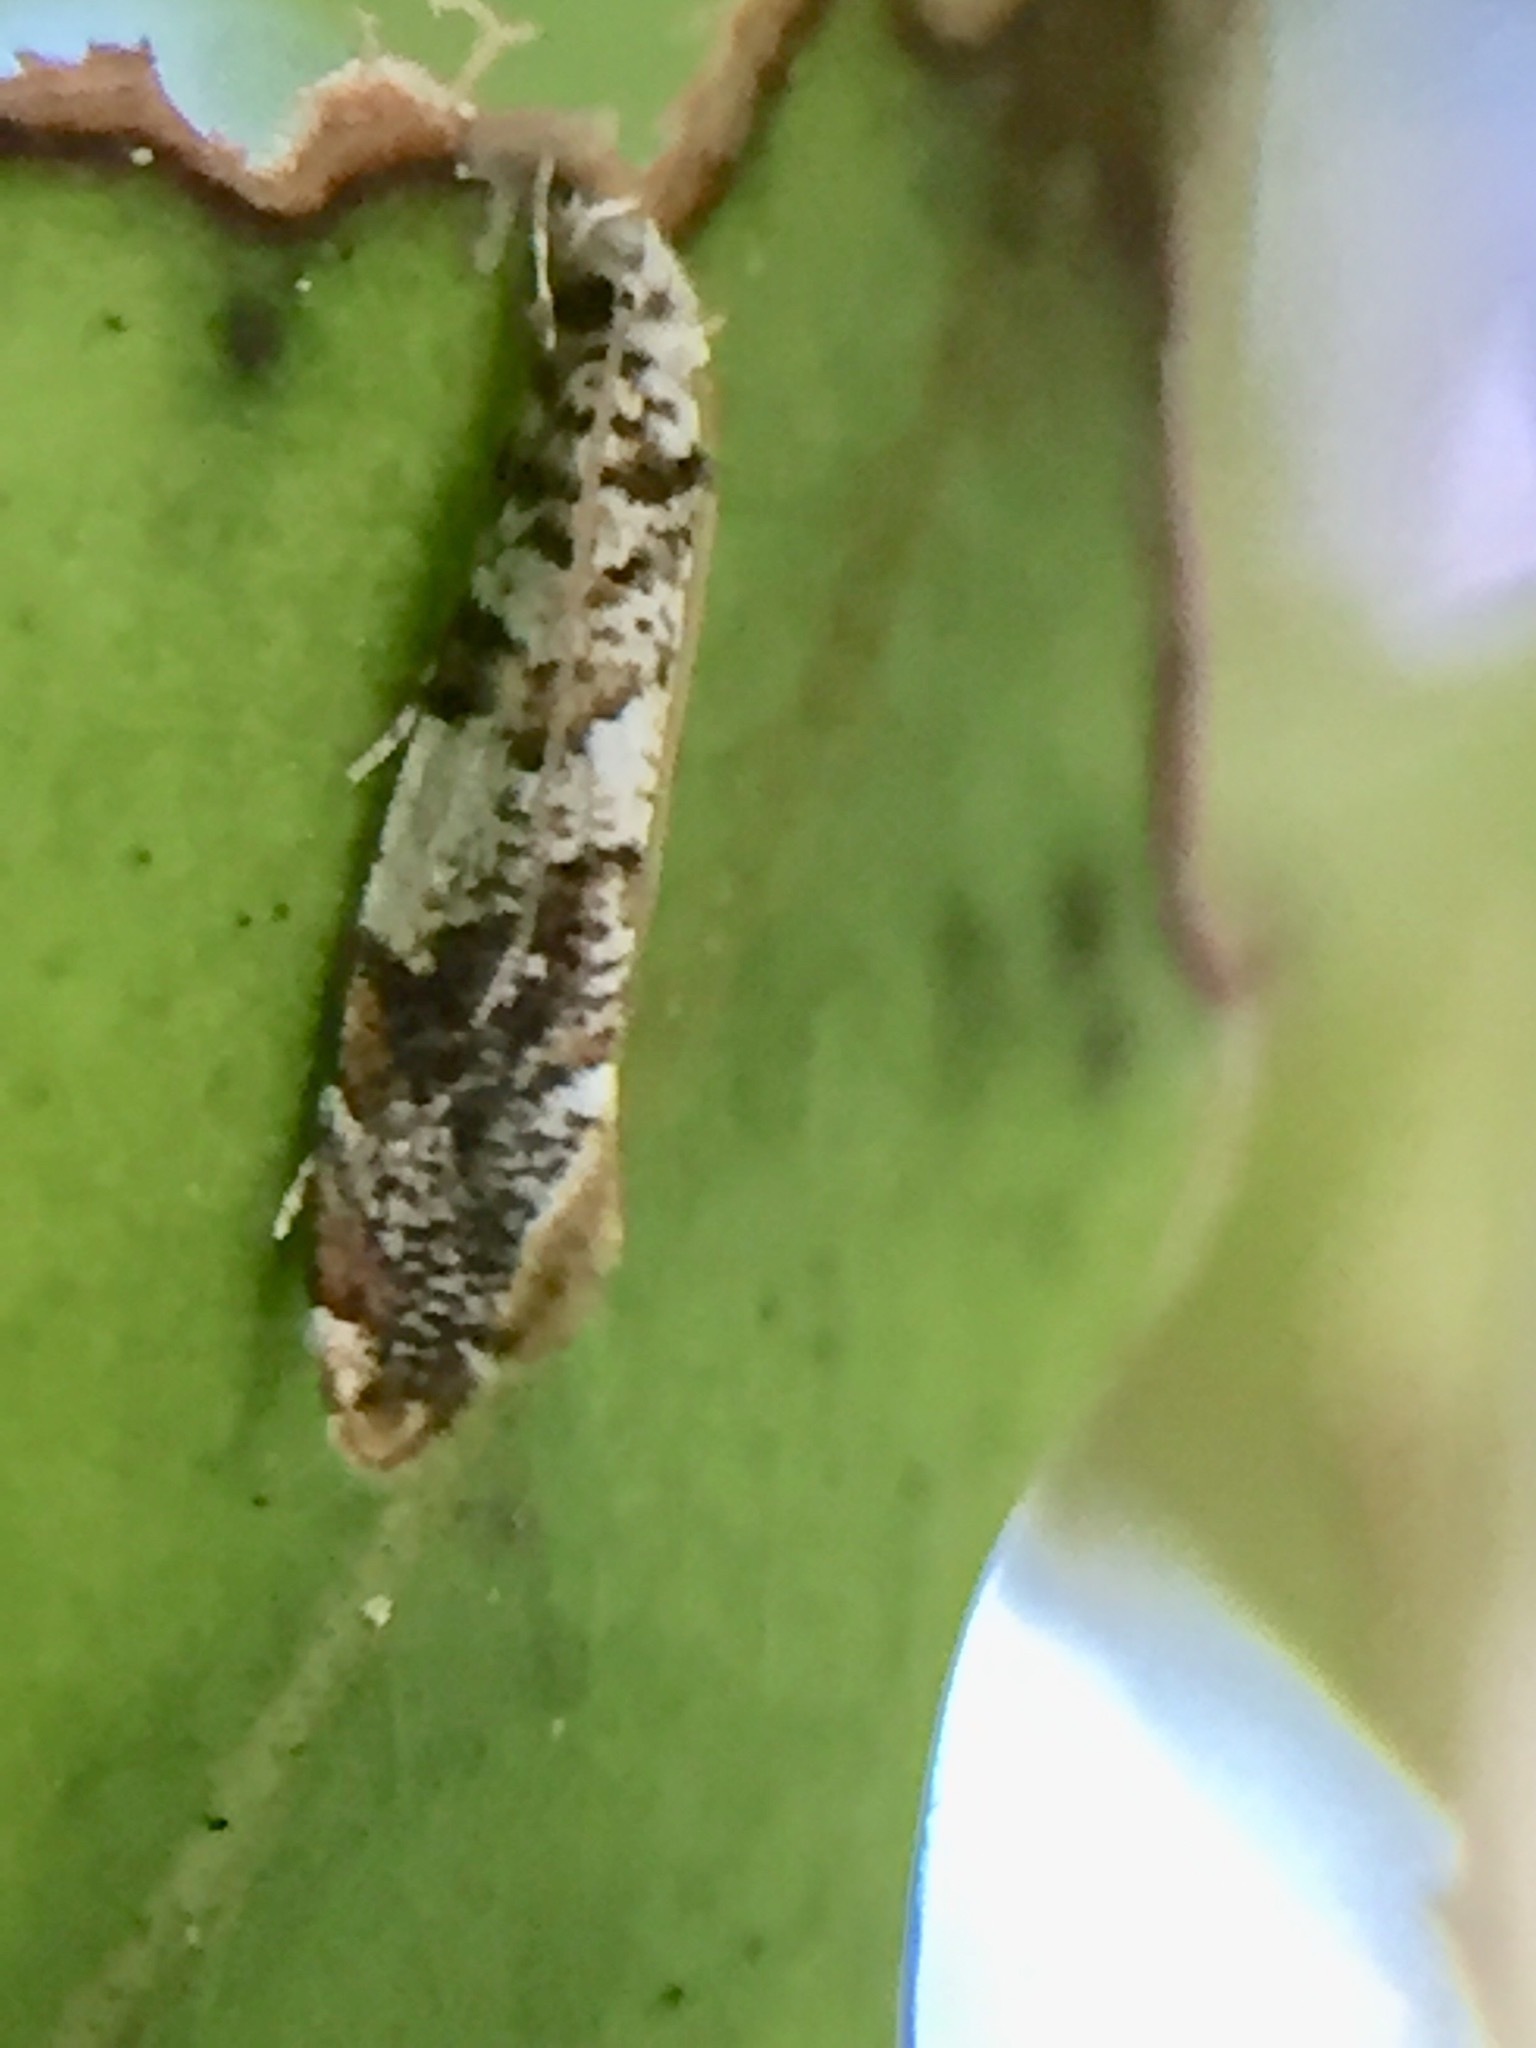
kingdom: Animalia
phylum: Arthropoda
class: Insecta
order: Lepidoptera
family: Tineidae
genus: Eschatotypa
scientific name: Eschatotypa derogatella
